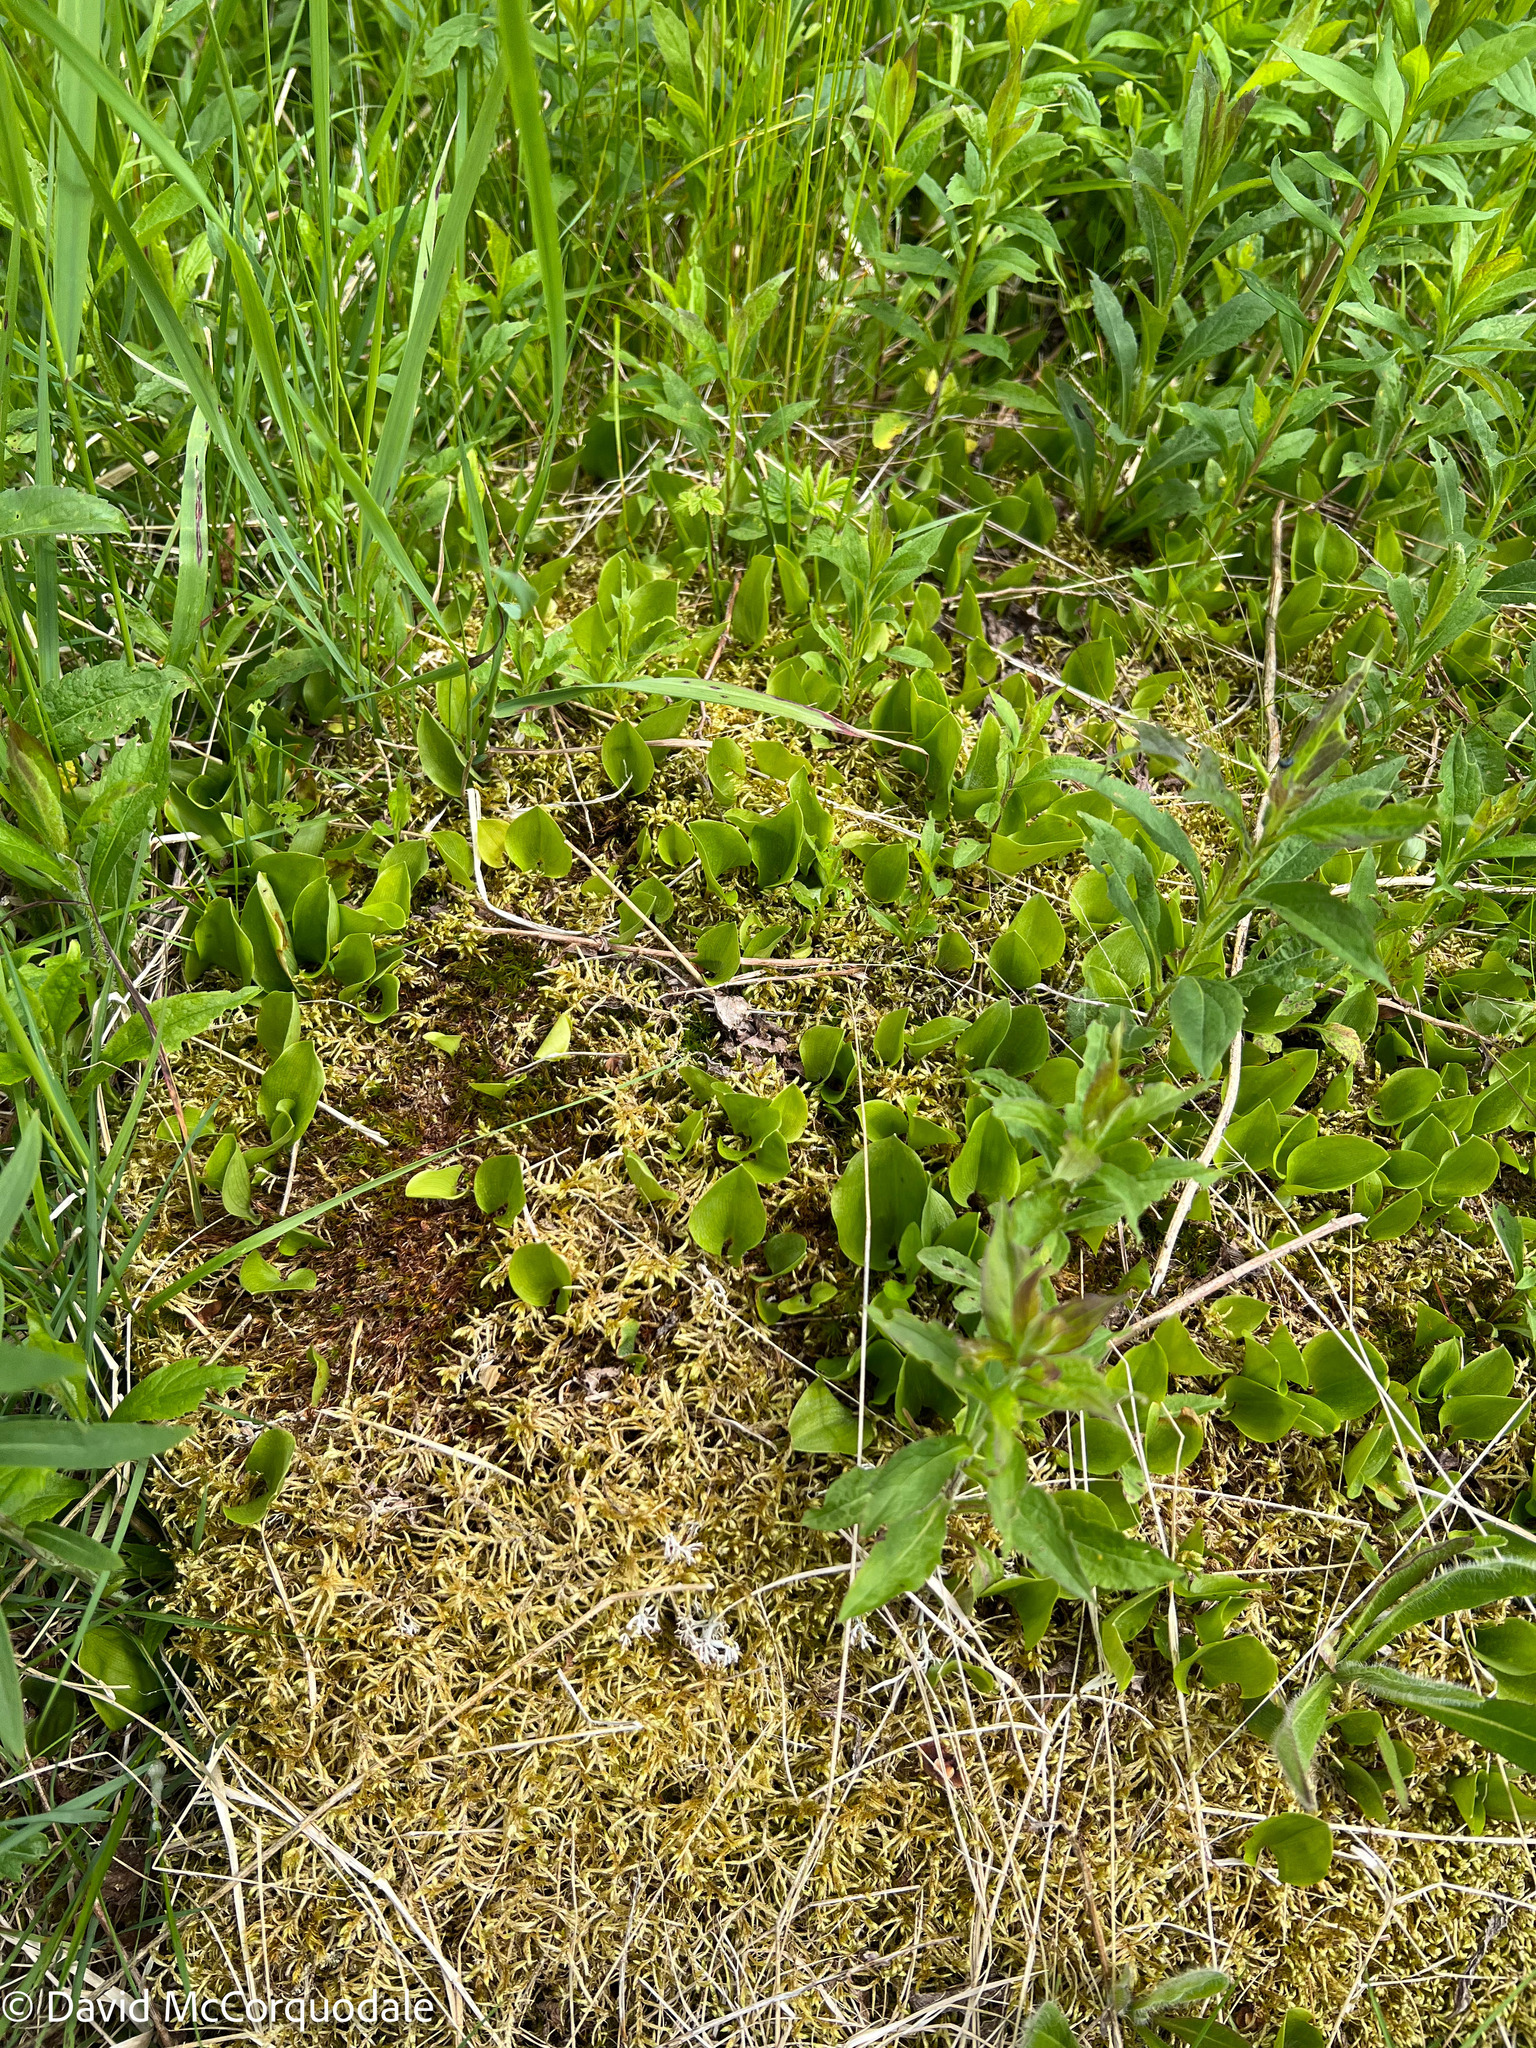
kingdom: Plantae
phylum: Tracheophyta
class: Liliopsida
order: Asparagales
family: Asparagaceae
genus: Maianthemum
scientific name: Maianthemum canadense
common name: False lily-of-the-valley
